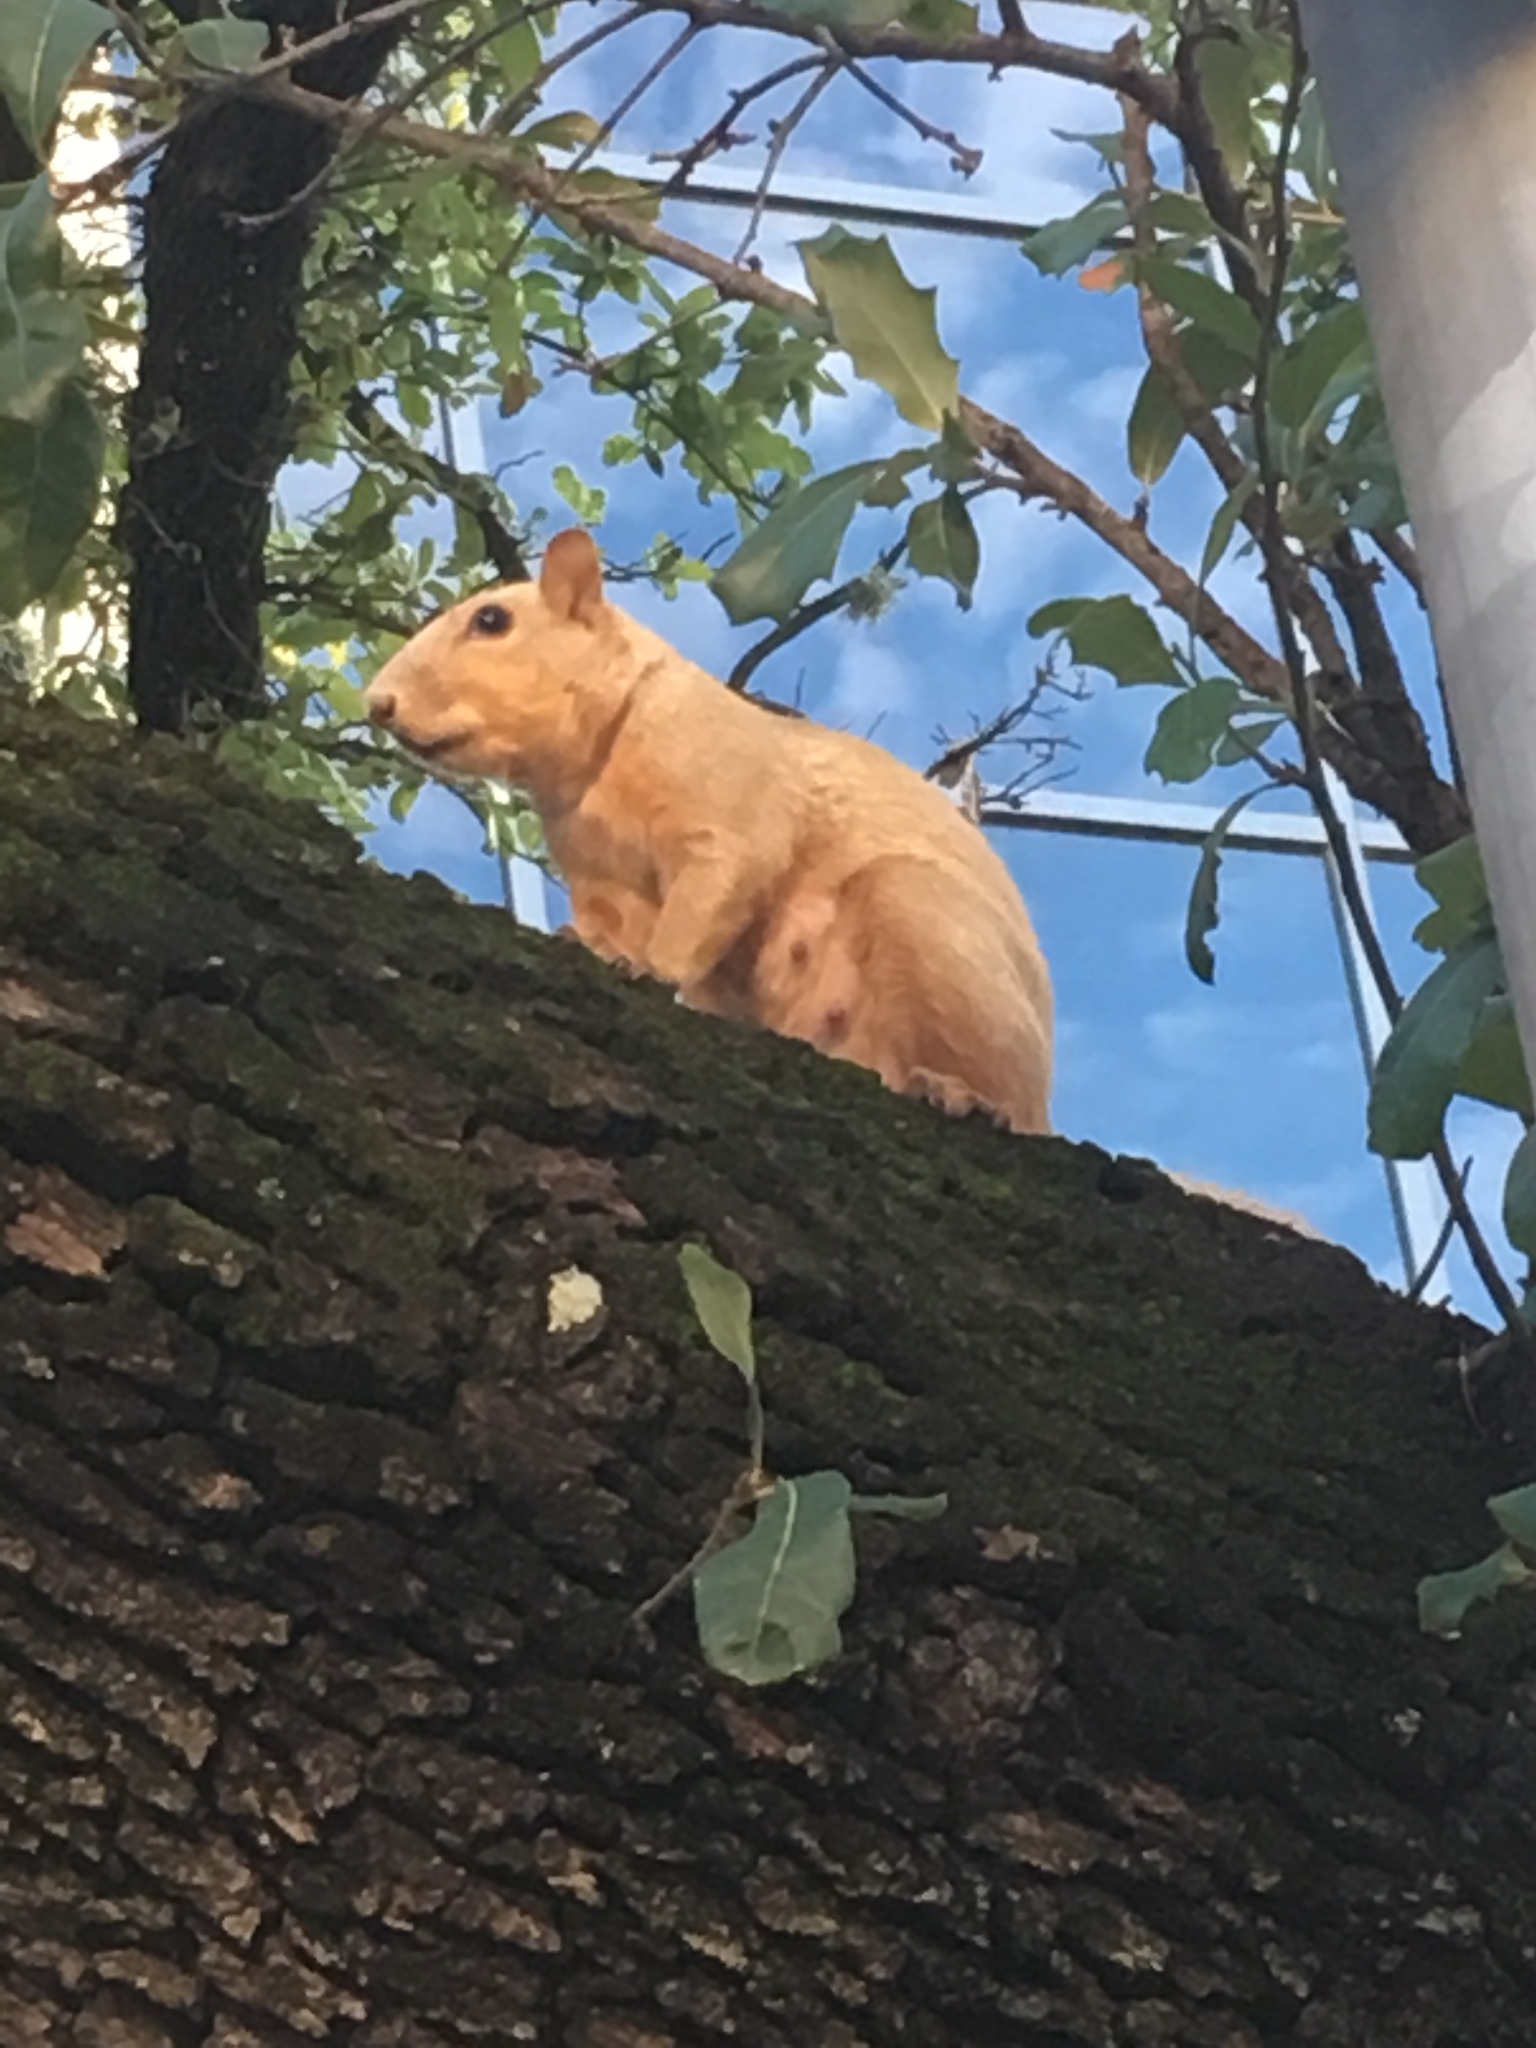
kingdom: Animalia
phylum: Chordata
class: Mammalia
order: Rodentia
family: Sciuridae
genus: Sciurus
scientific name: Sciurus niger
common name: Fox squirrel
